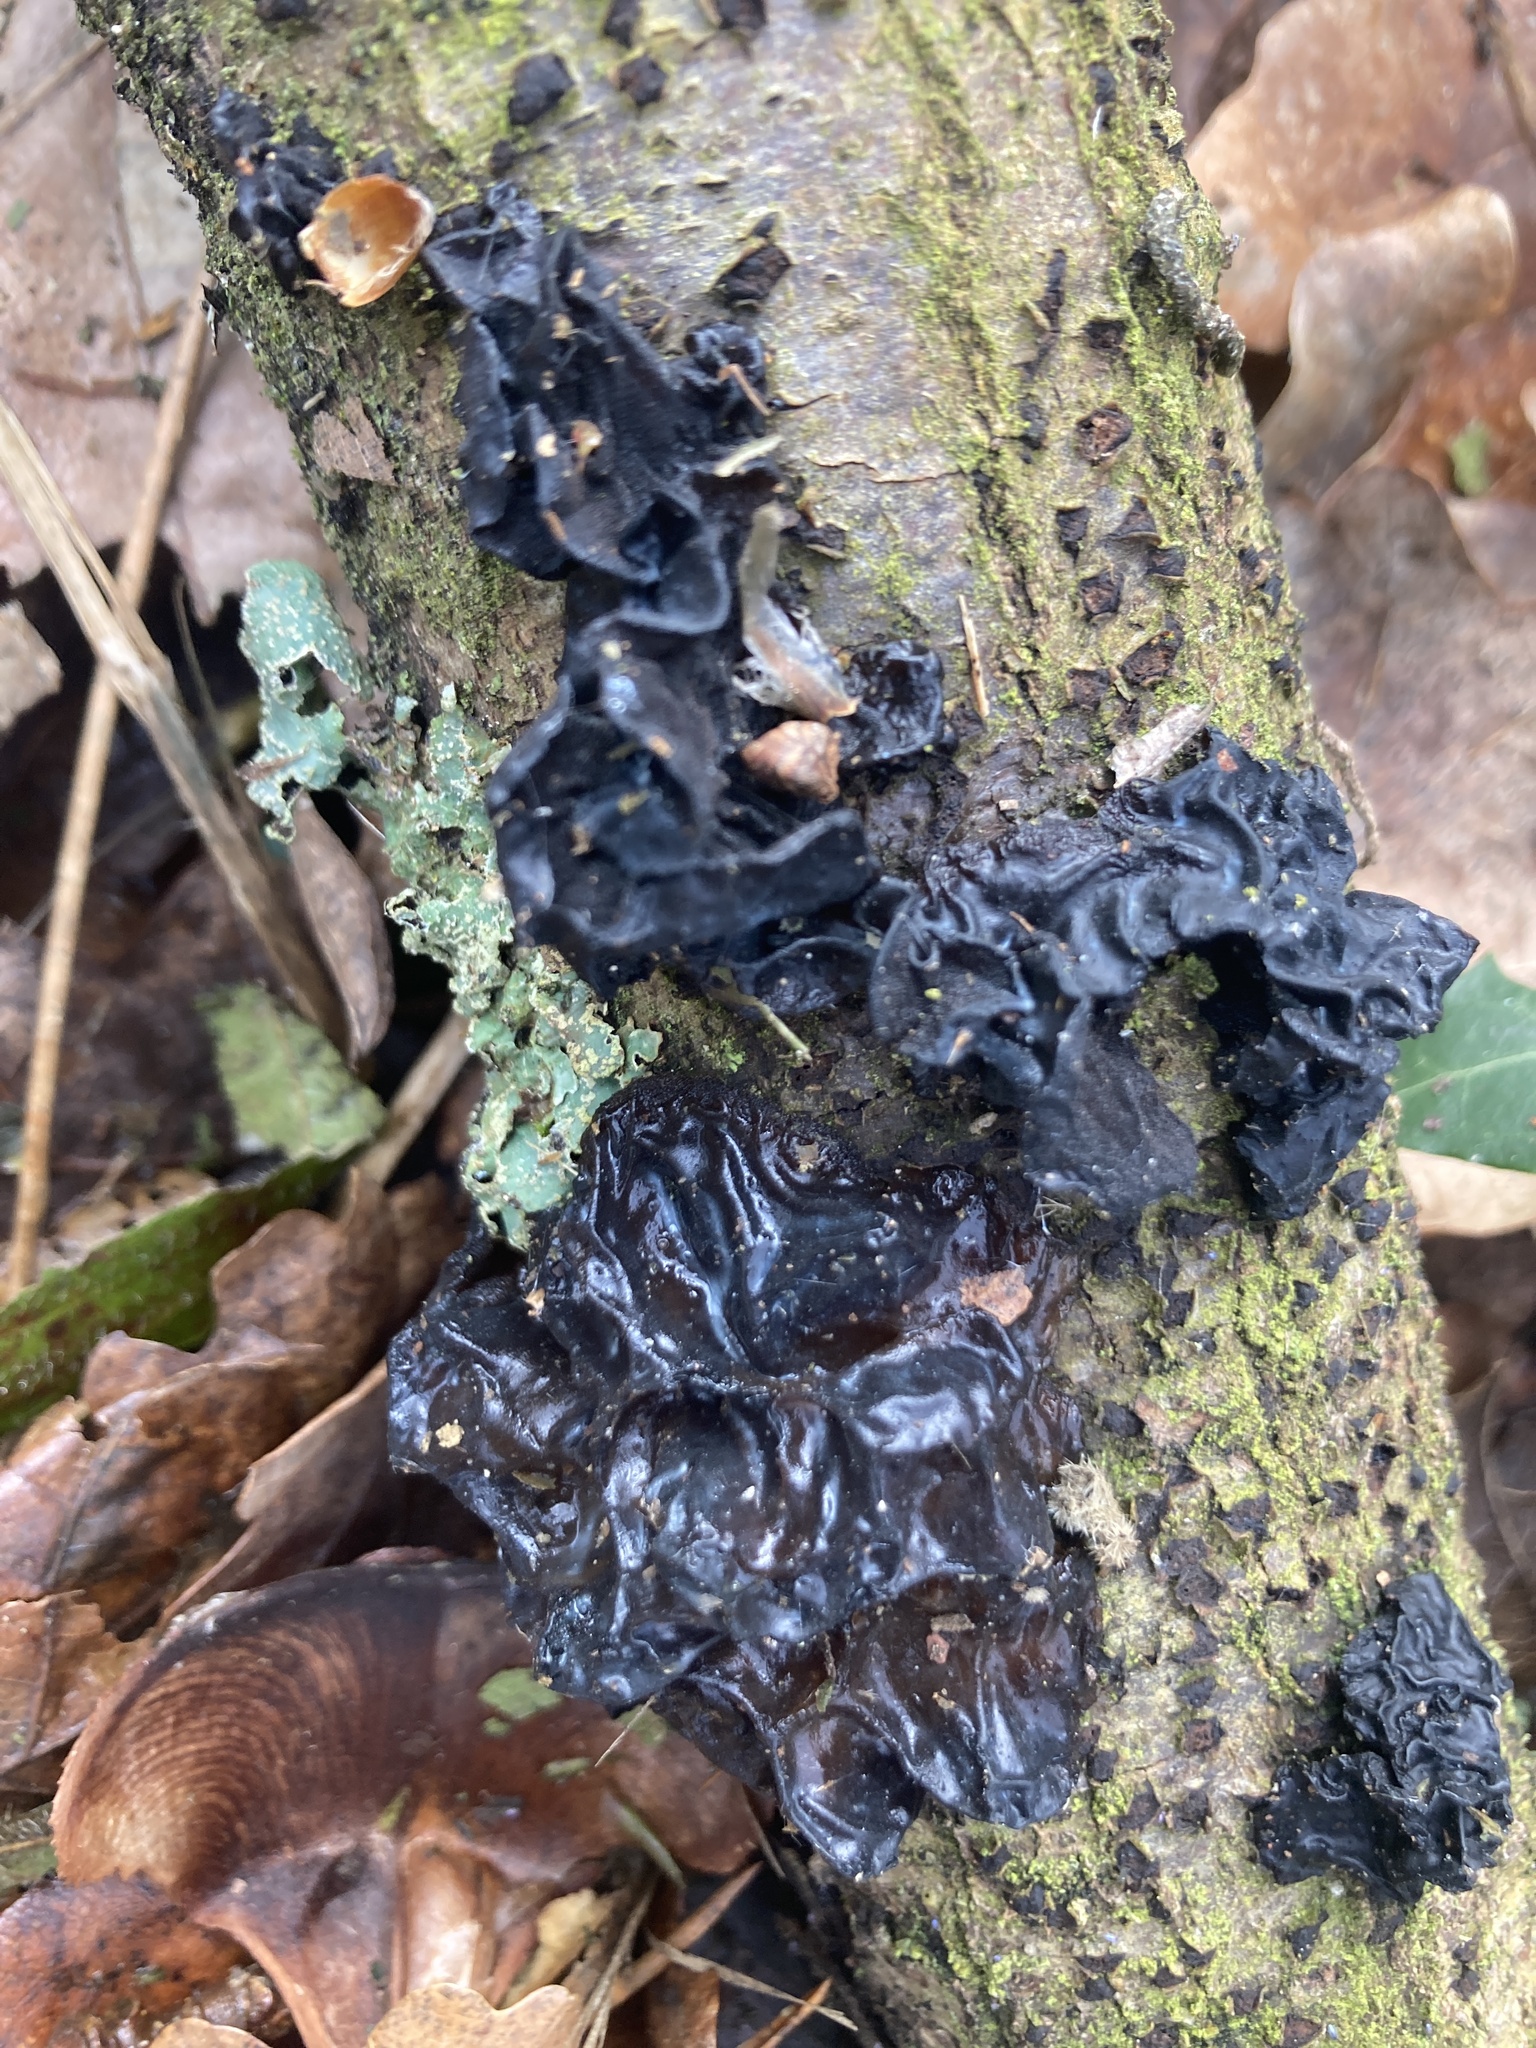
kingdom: Fungi
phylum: Basidiomycota
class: Agaricomycetes
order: Auriculariales
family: Auriculariaceae
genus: Exidia
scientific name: Exidia glandulosa
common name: Witches' butter
